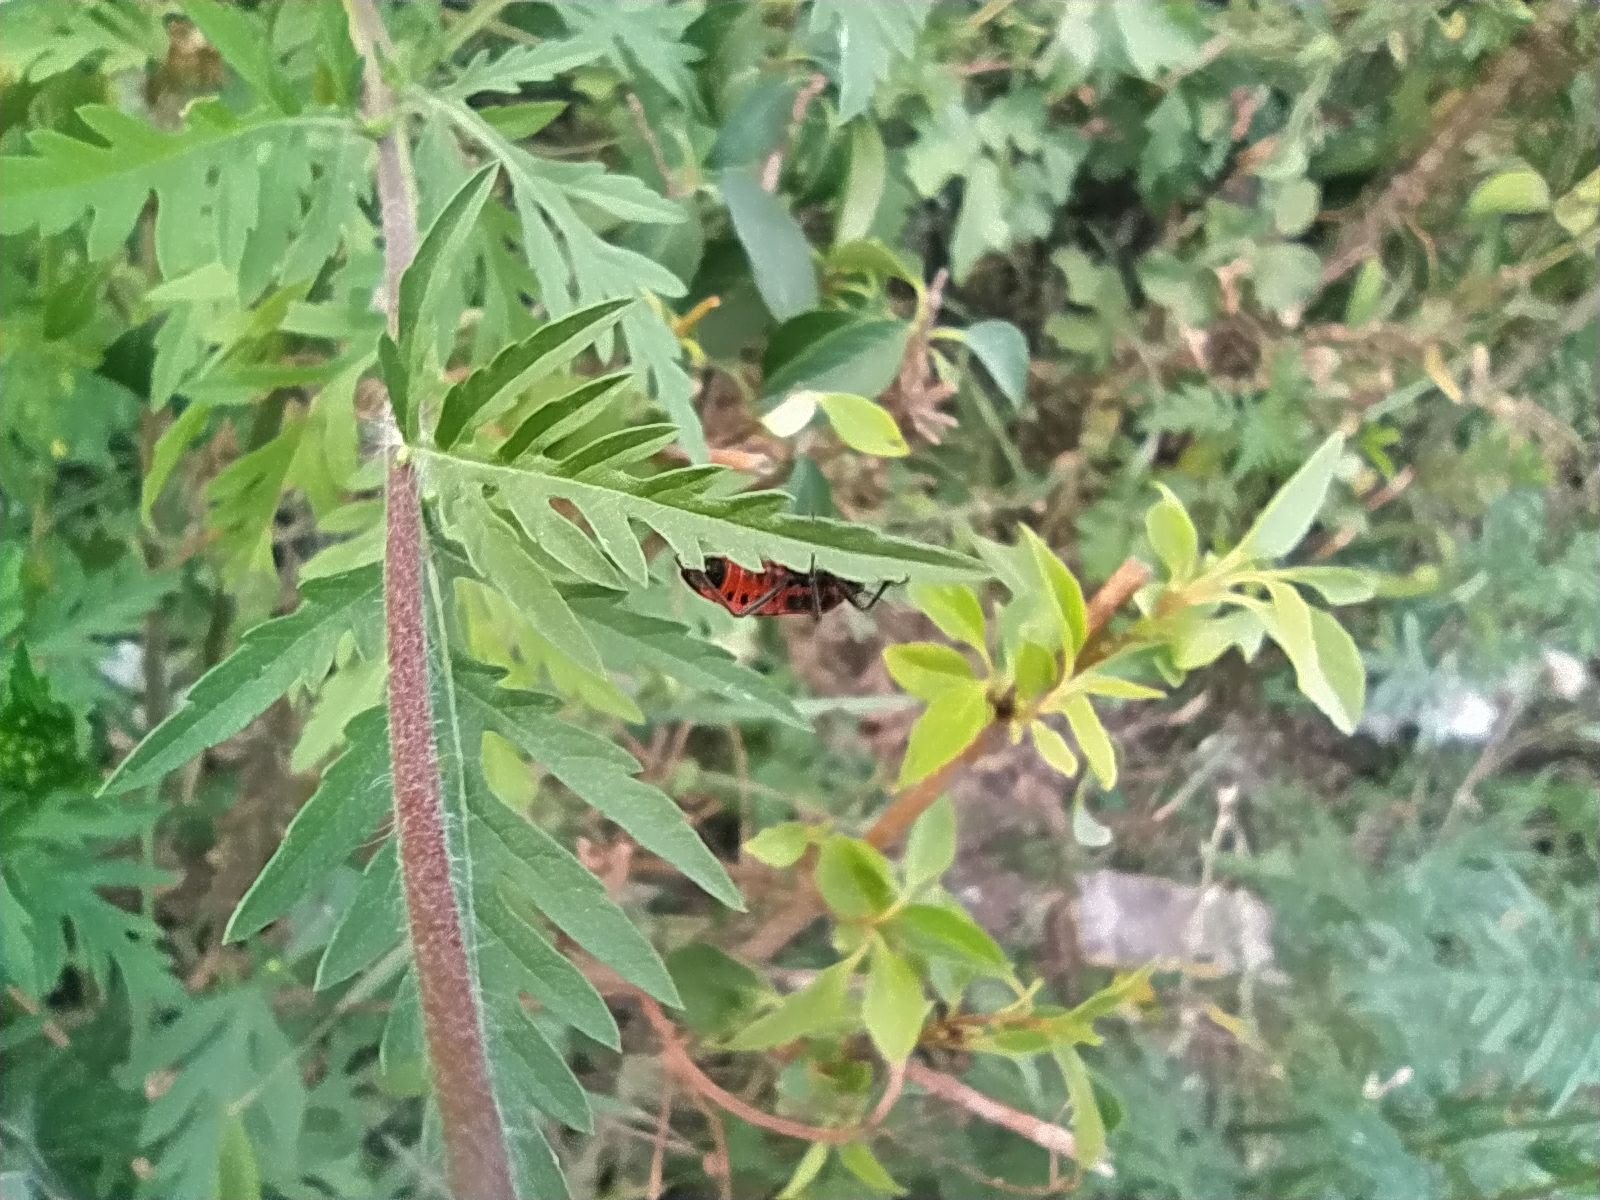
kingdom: Animalia
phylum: Arthropoda
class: Insecta
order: Hemiptera
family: Lygaeidae
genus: Tropidothorax
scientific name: Tropidothorax leucopterus
